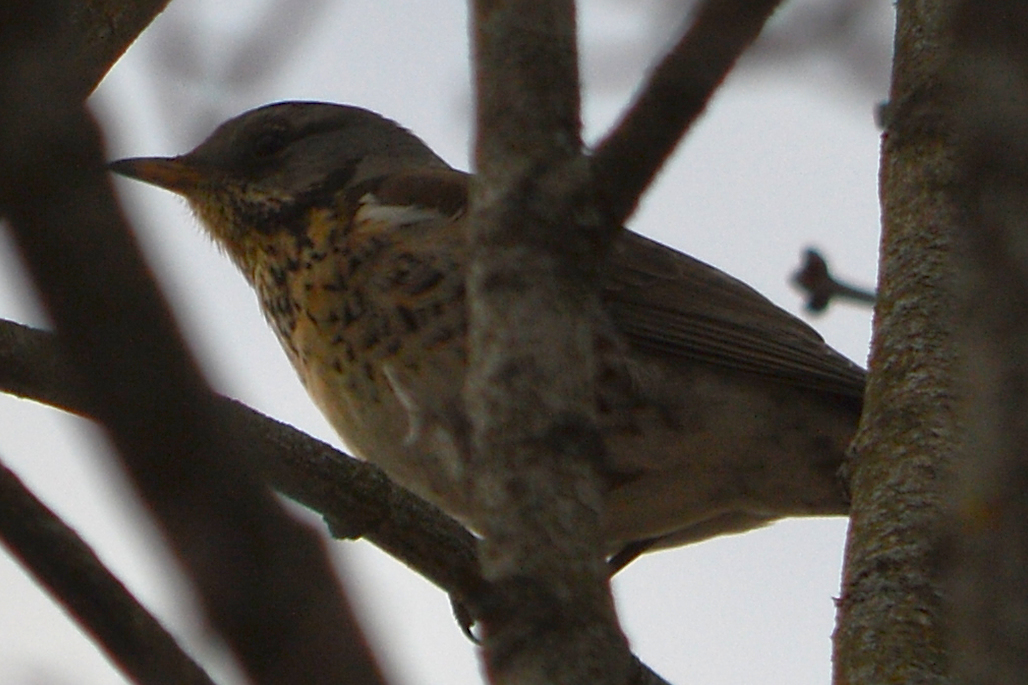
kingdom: Animalia
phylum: Chordata
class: Aves
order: Passeriformes
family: Turdidae
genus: Turdus
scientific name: Turdus pilaris
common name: Fieldfare
